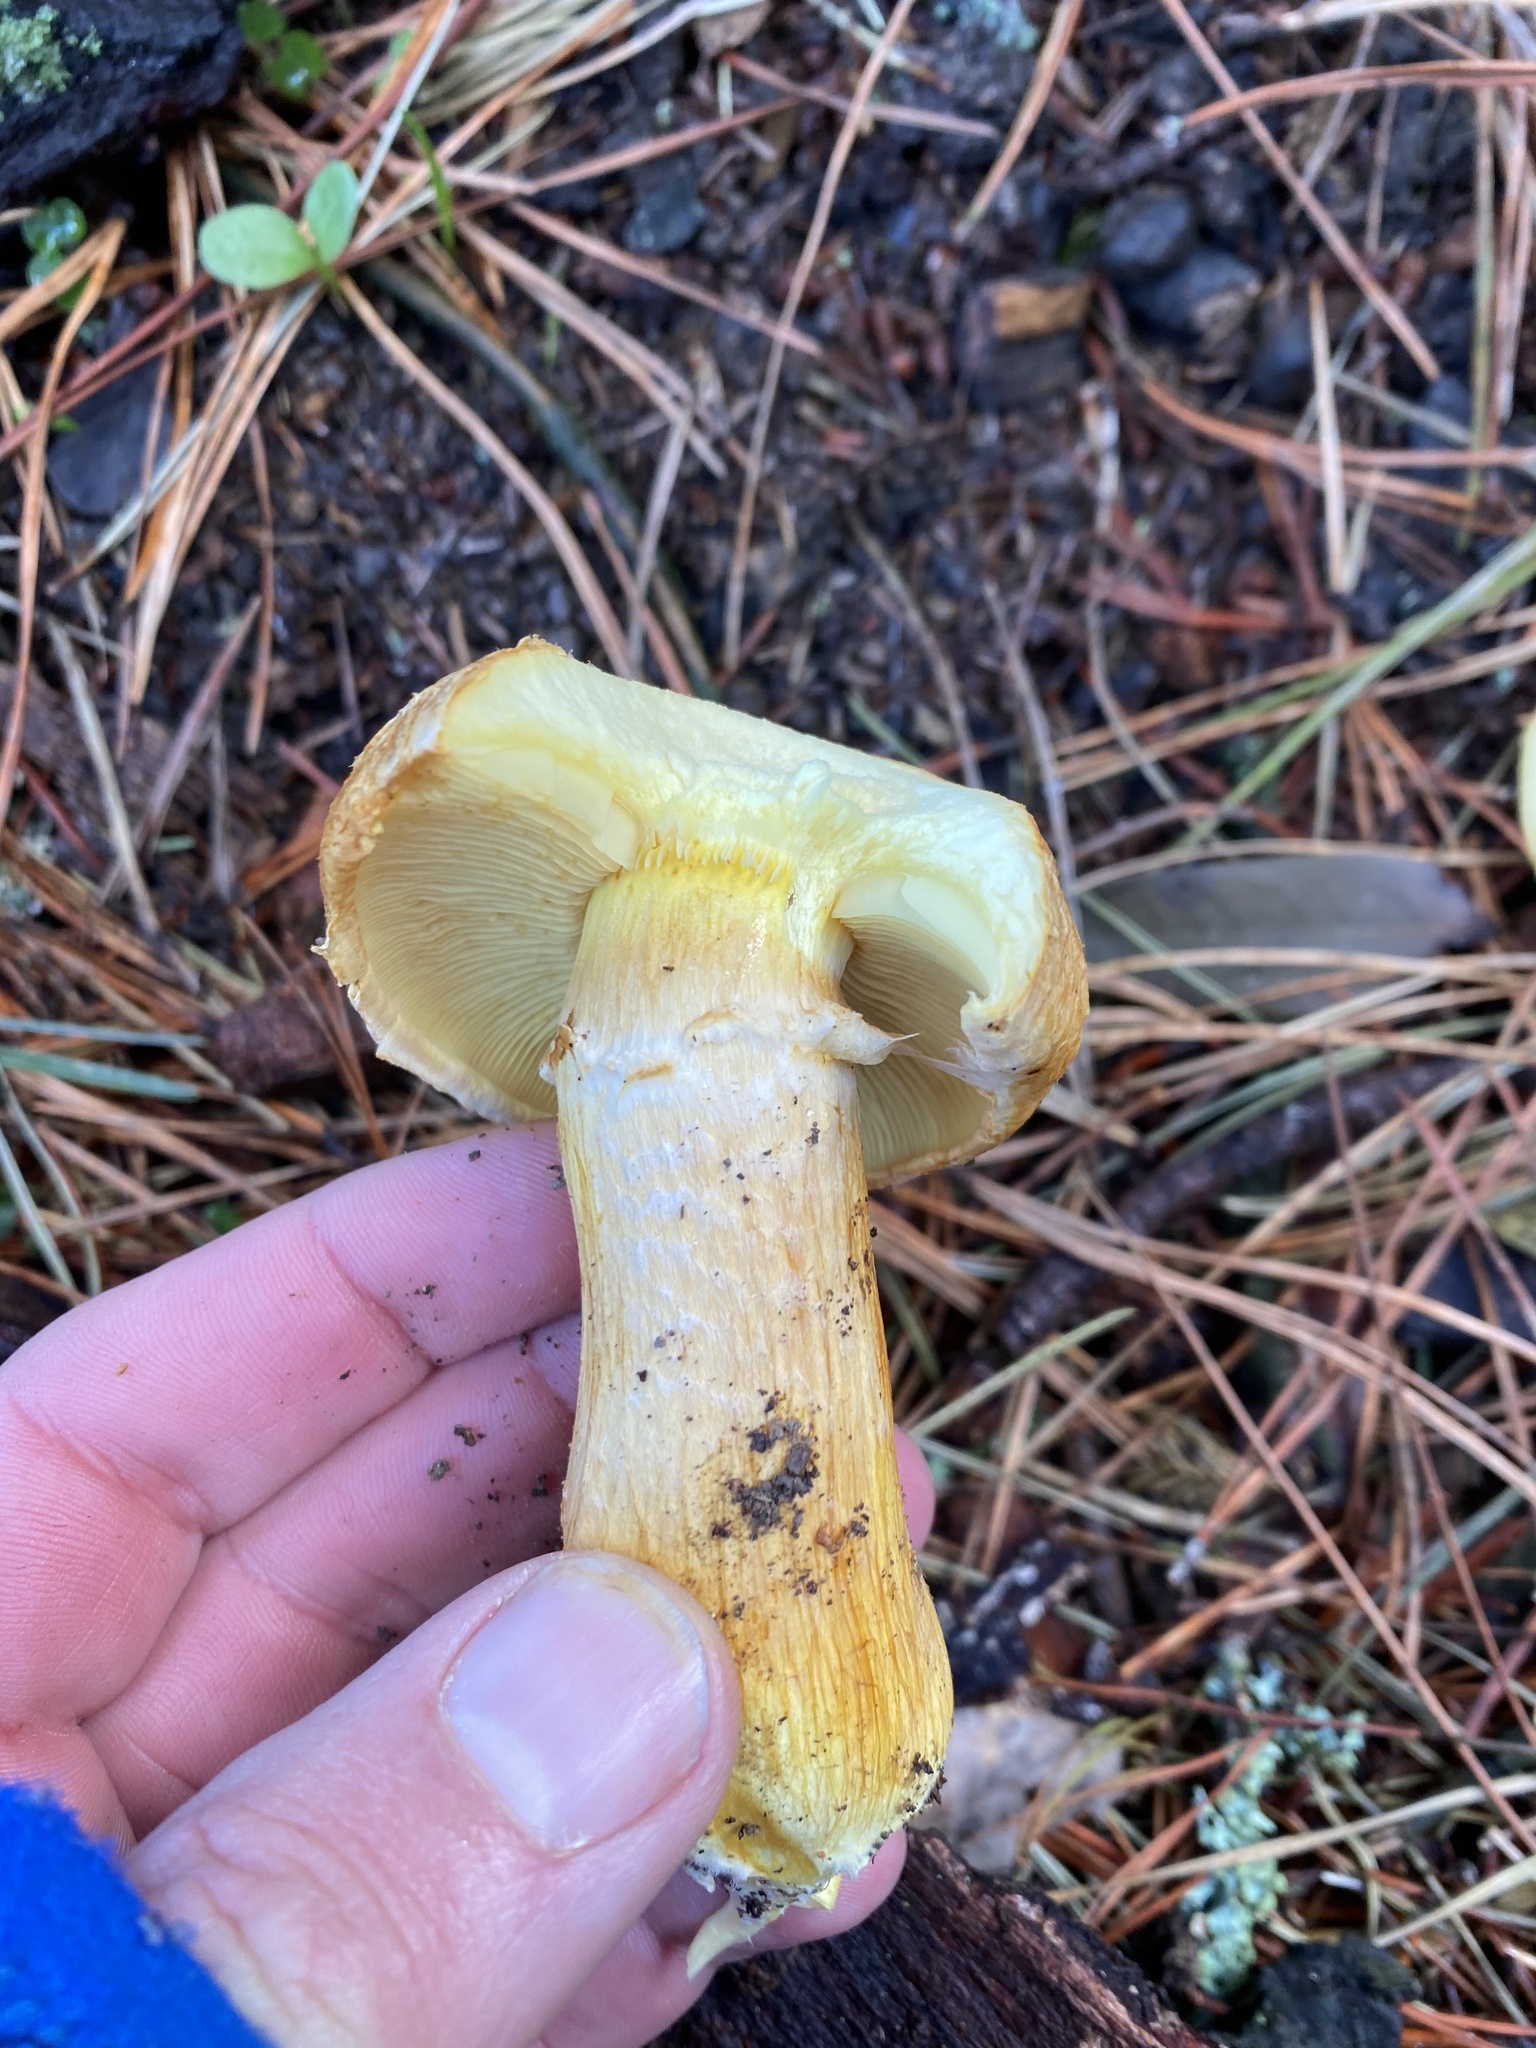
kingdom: Fungi
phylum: Basidiomycota
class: Agaricomycetes
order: Agaricales
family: Hymenogastraceae
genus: Gymnopilus
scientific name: Gymnopilus ventricosus
